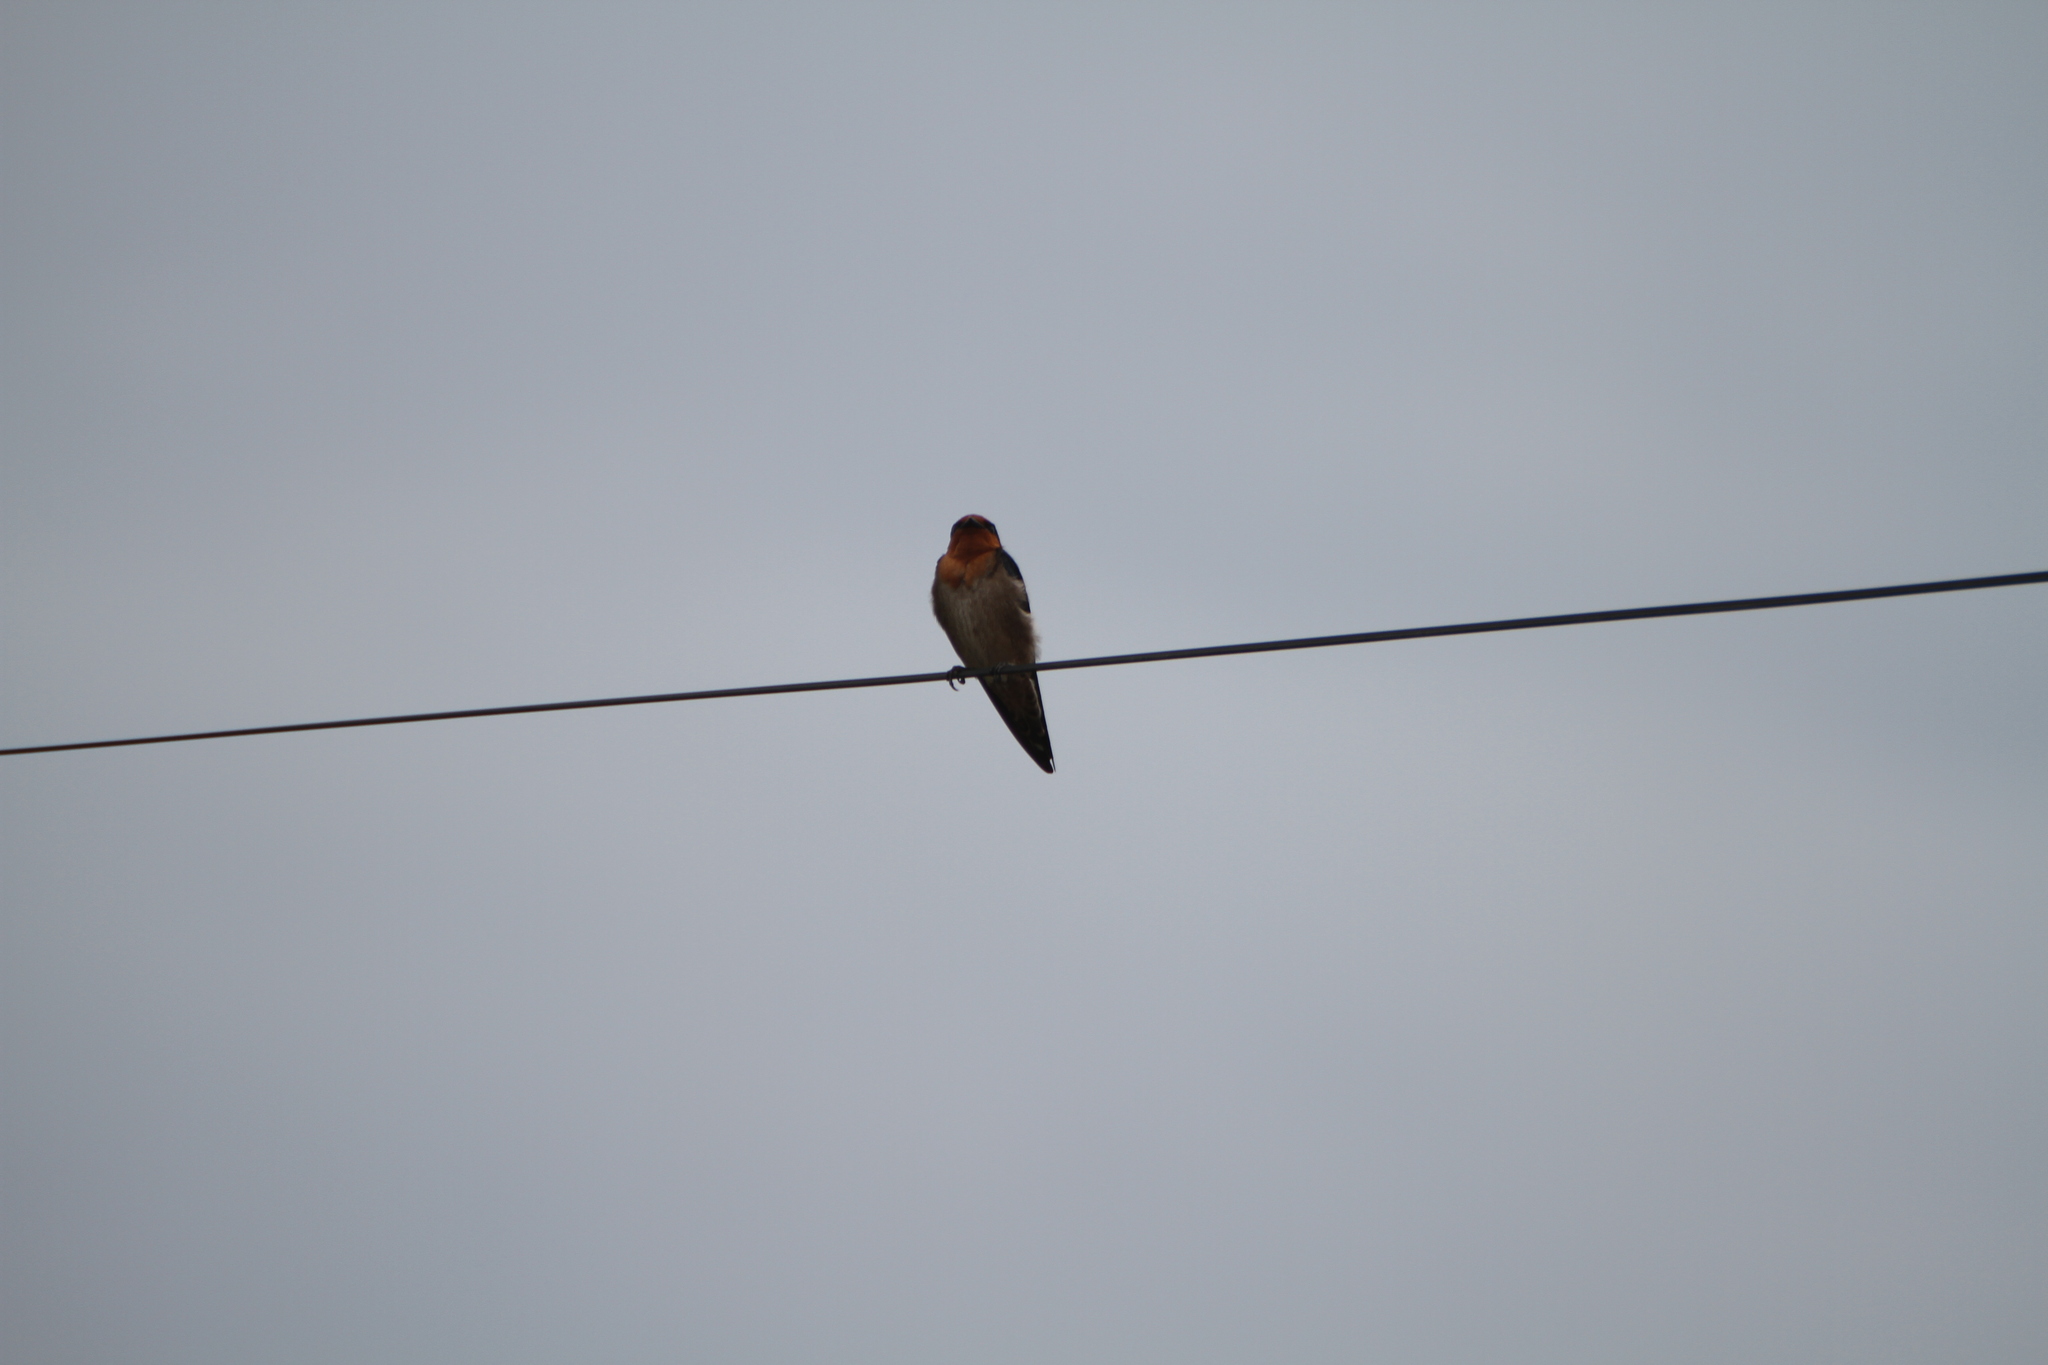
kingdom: Animalia
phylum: Chordata
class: Aves
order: Passeriformes
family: Hirundinidae
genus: Hirundo
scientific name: Hirundo tahitica
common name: Pacific swallow
